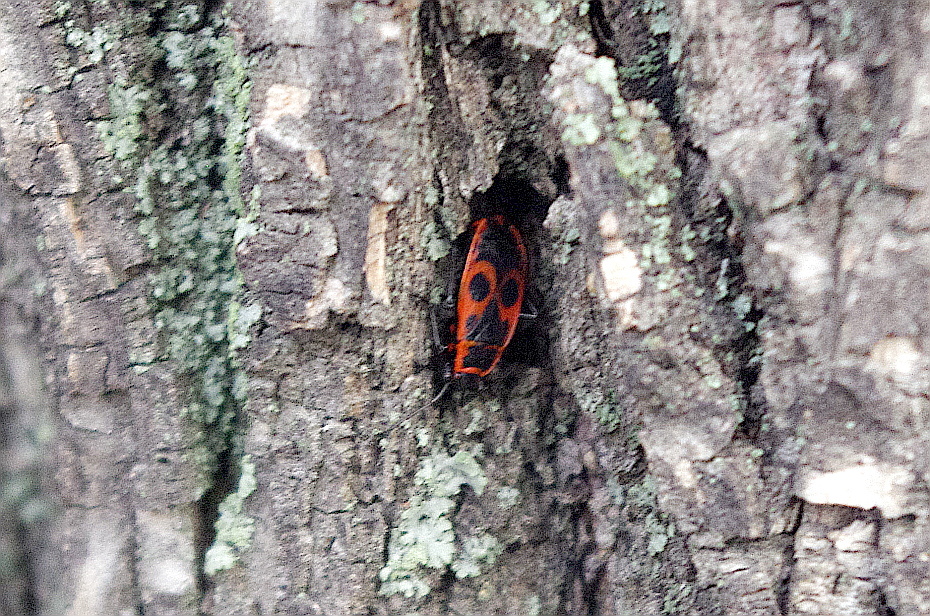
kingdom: Animalia
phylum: Arthropoda
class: Insecta
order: Hemiptera
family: Pyrrhocoridae
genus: Pyrrhocoris
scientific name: Pyrrhocoris apterus
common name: Firebug
